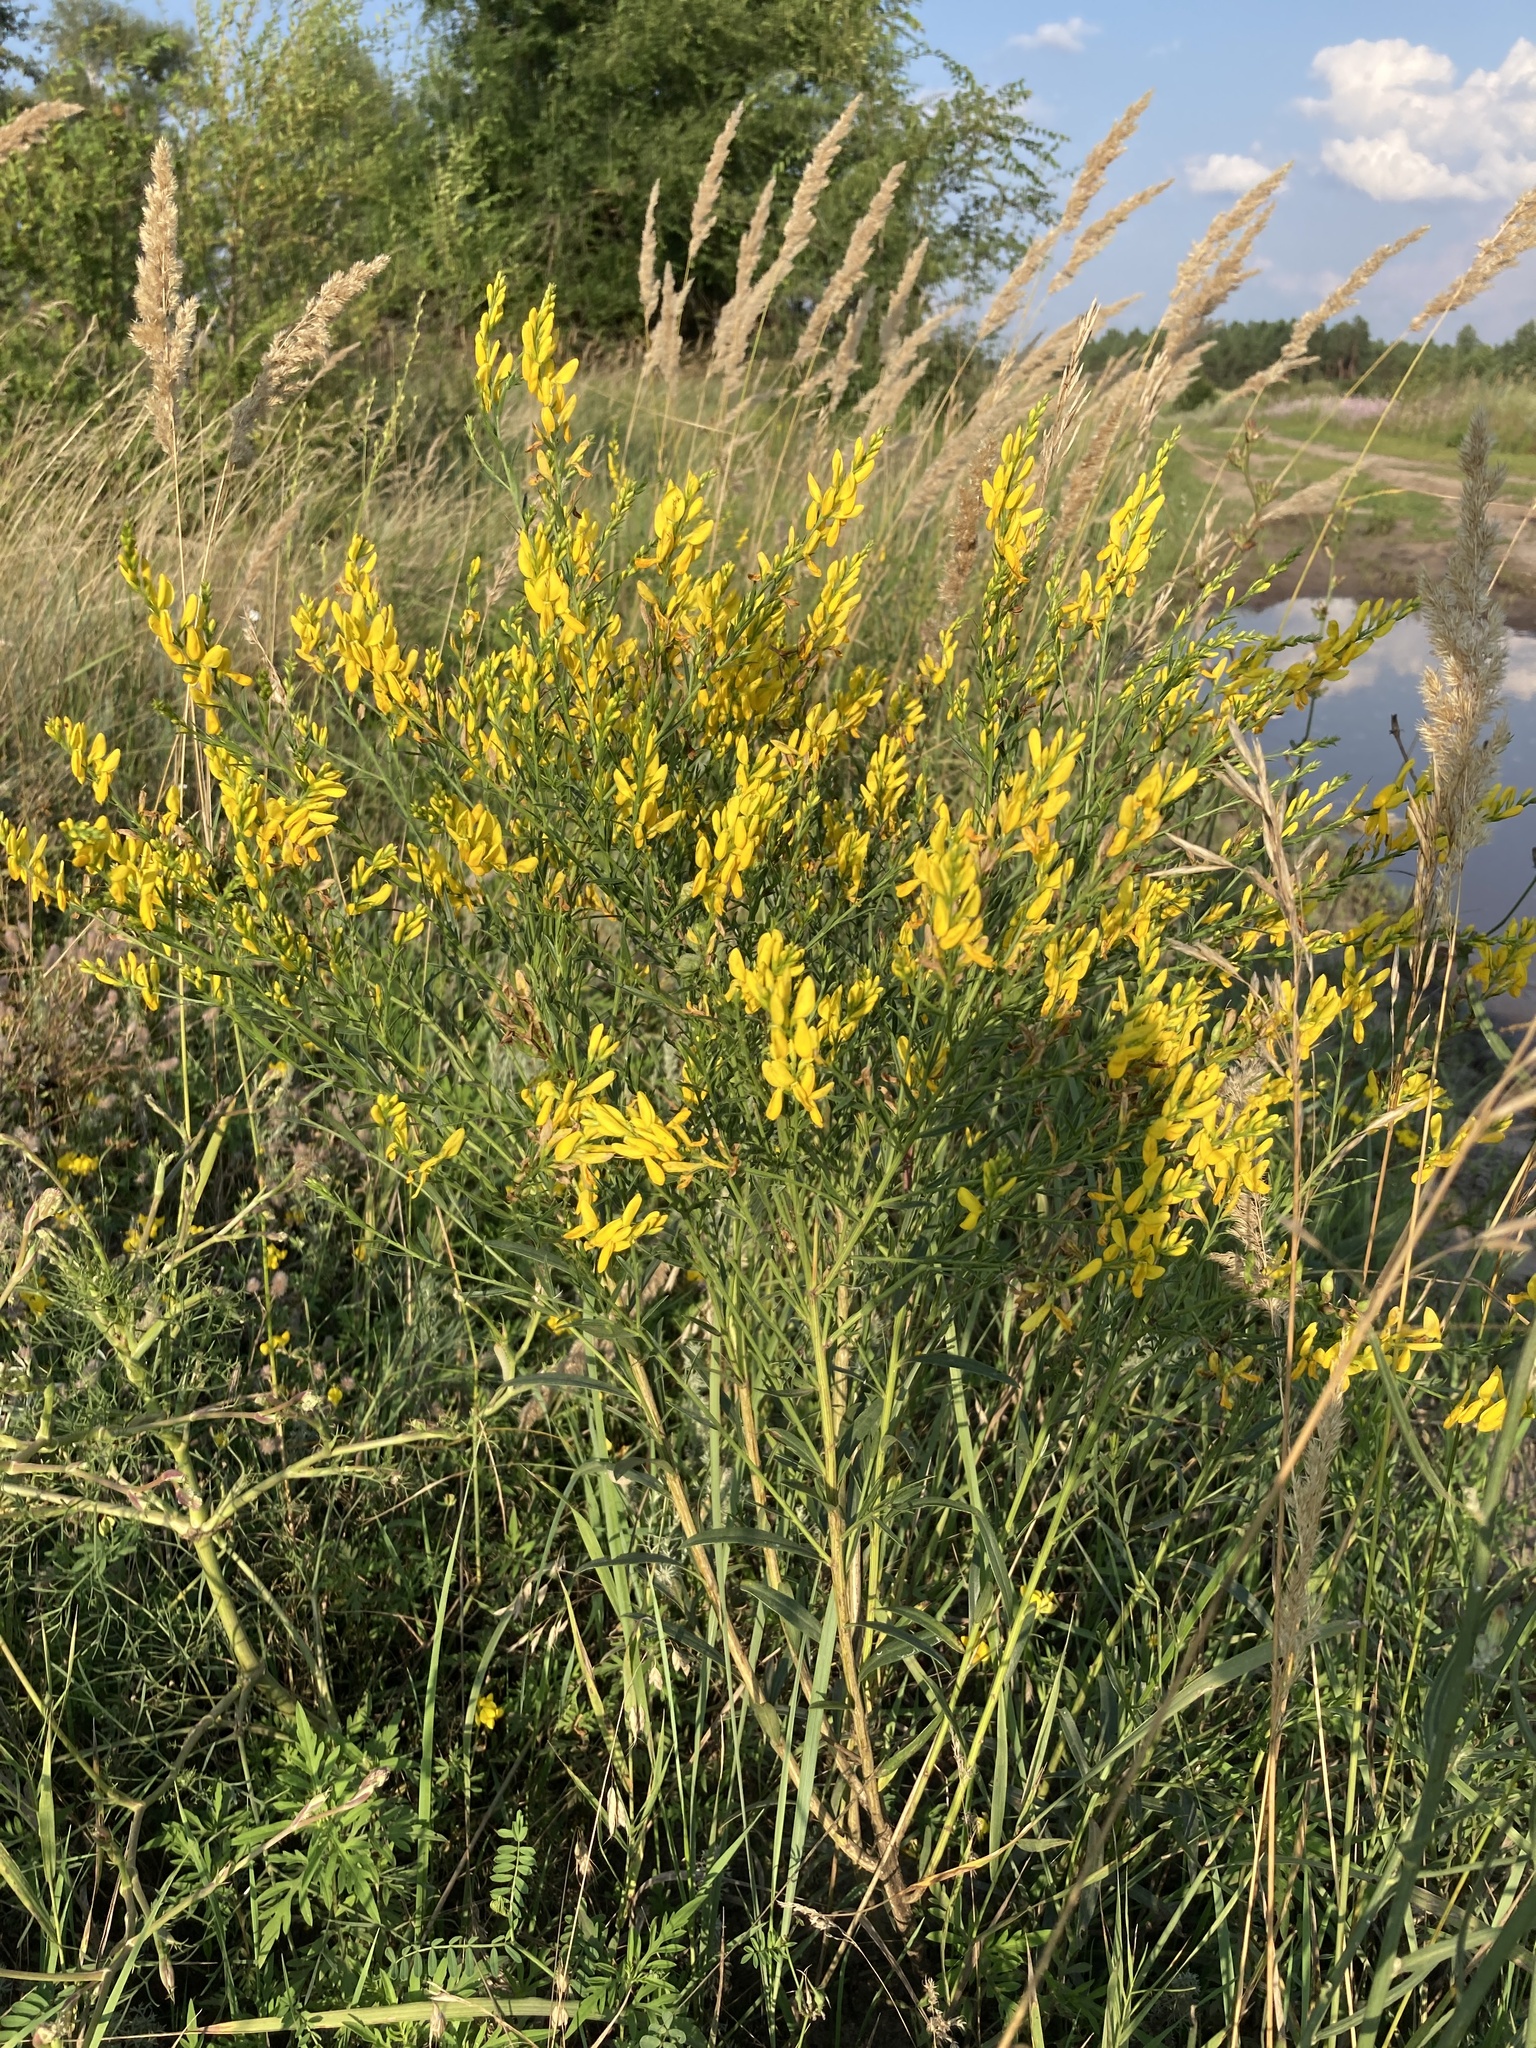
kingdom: Plantae
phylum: Tracheophyta
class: Magnoliopsida
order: Fabales
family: Fabaceae
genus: Genista
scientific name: Genista tinctoria
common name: Dyer's greenweed
